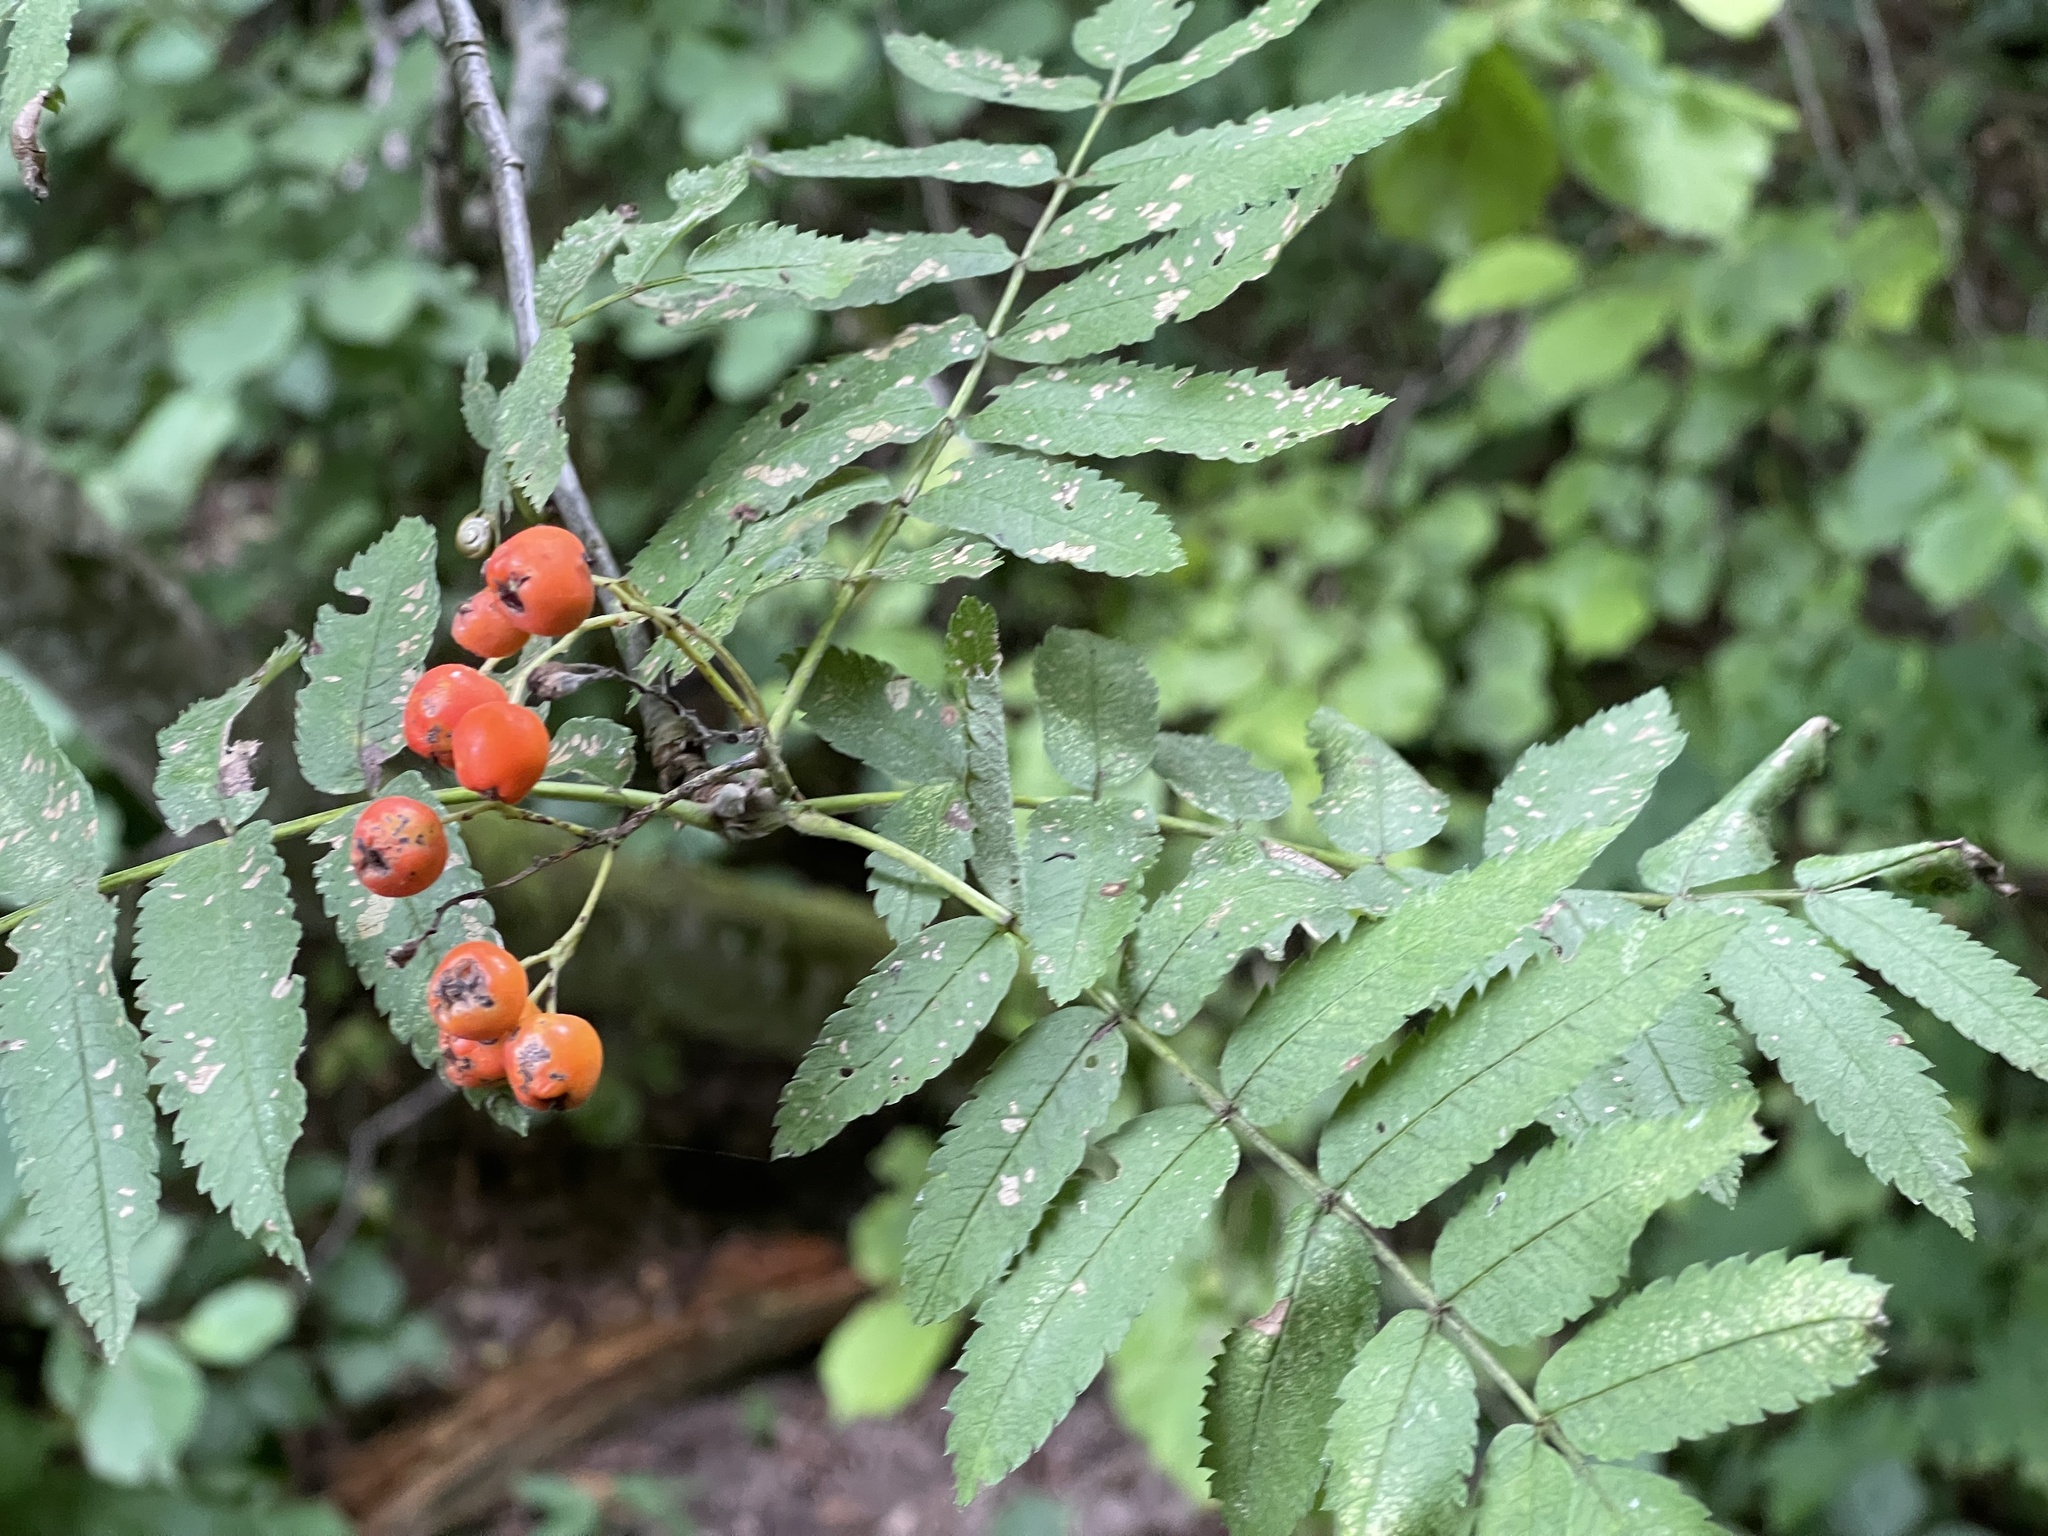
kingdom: Plantae
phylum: Tracheophyta
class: Magnoliopsida
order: Rosales
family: Rosaceae
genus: Sorbus
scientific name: Sorbus aucuparia
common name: Rowan
